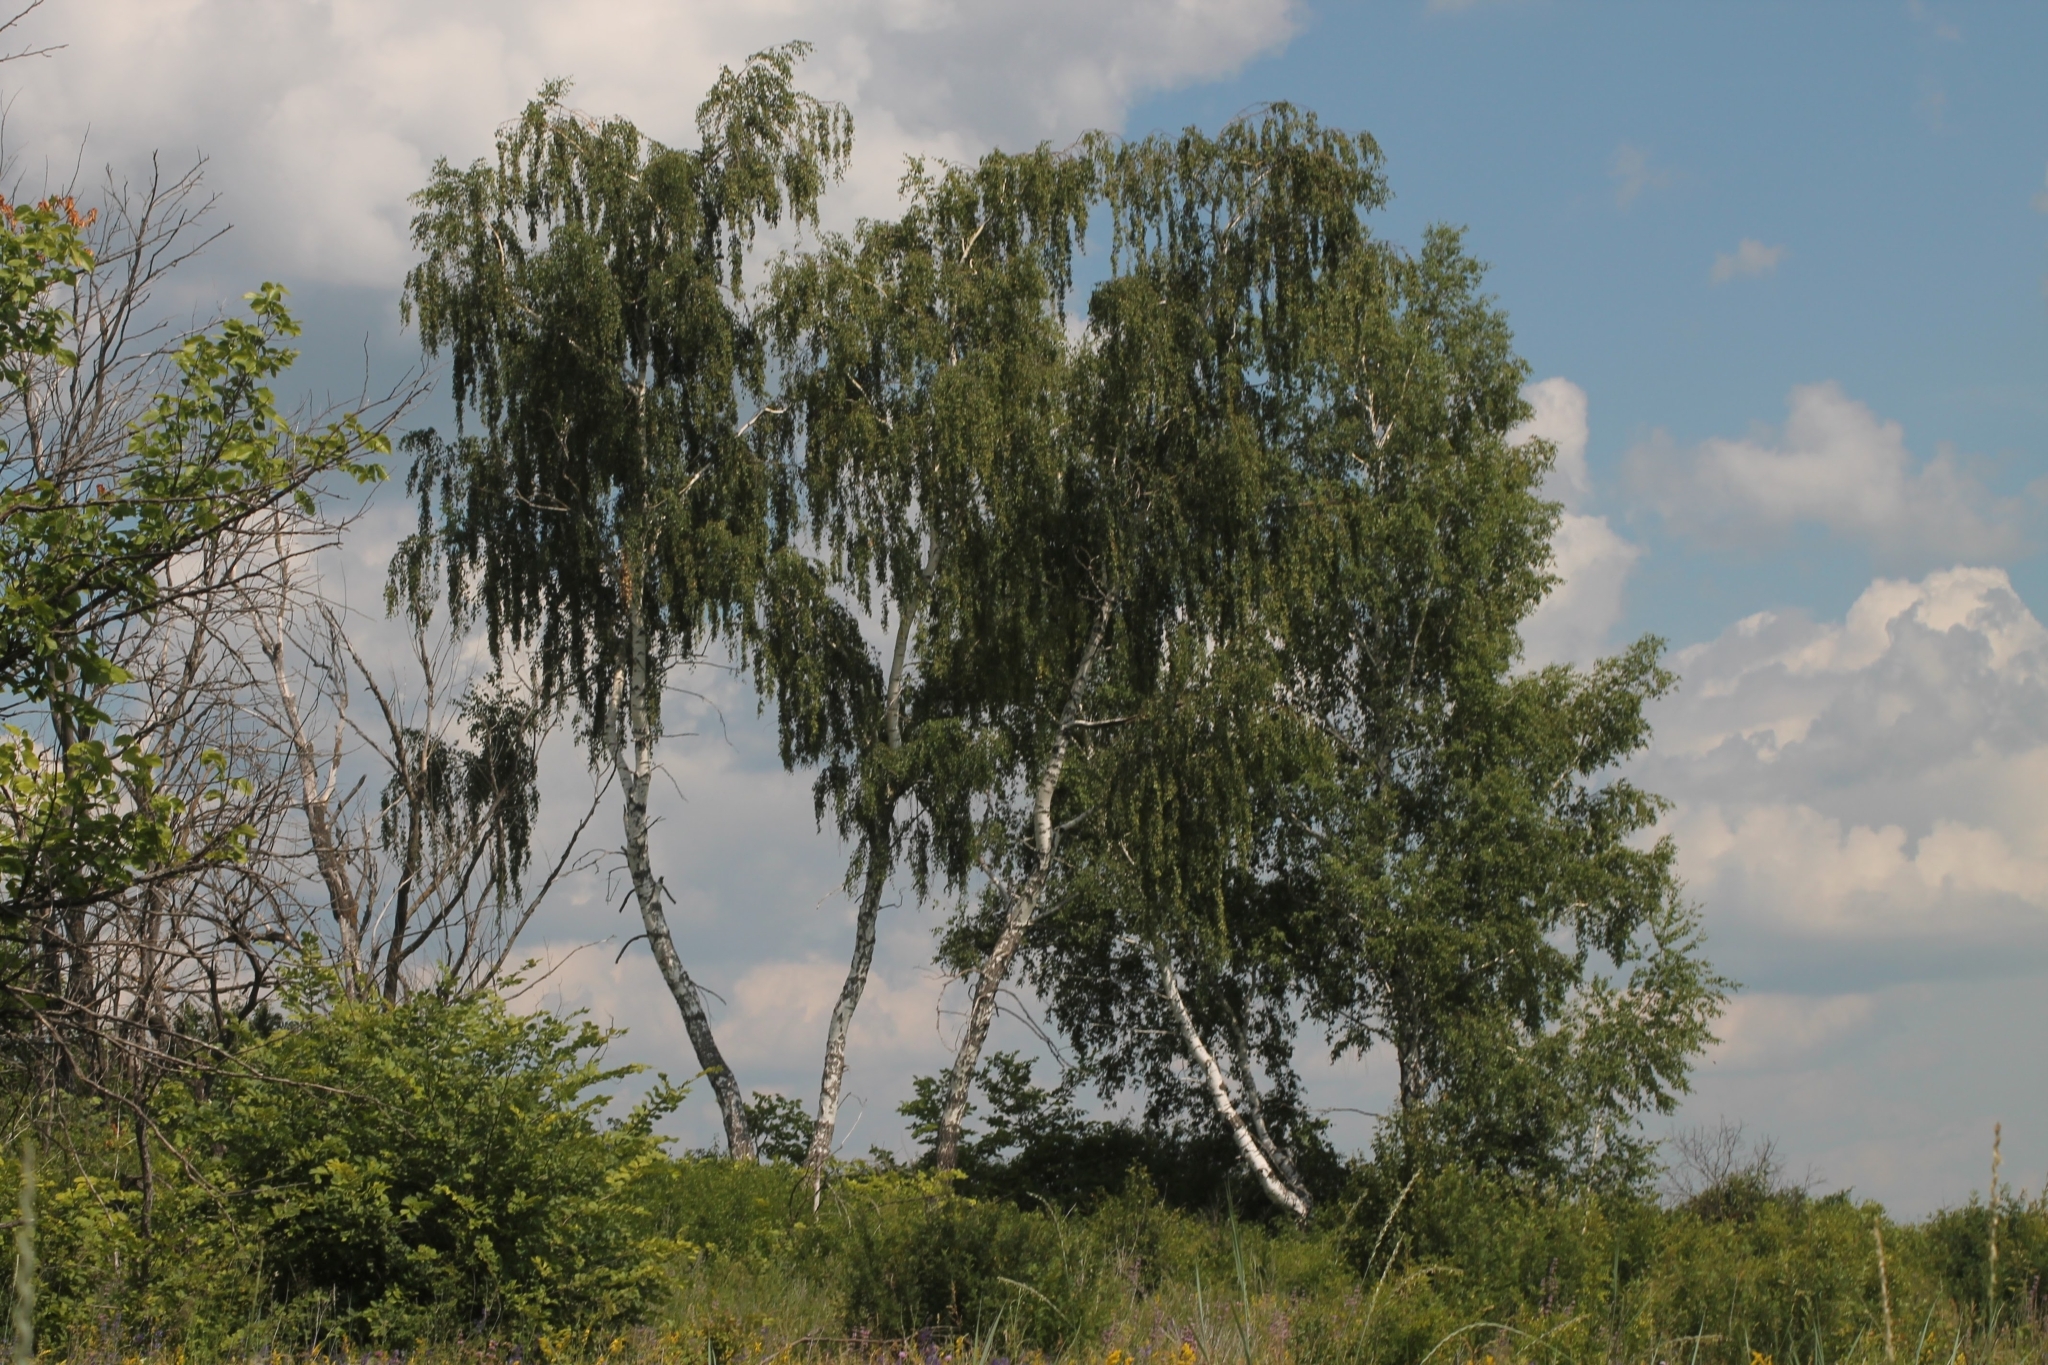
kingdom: Plantae
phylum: Tracheophyta
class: Magnoliopsida
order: Fagales
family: Betulaceae
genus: Betula
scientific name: Betula pendula
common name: Silver birch
